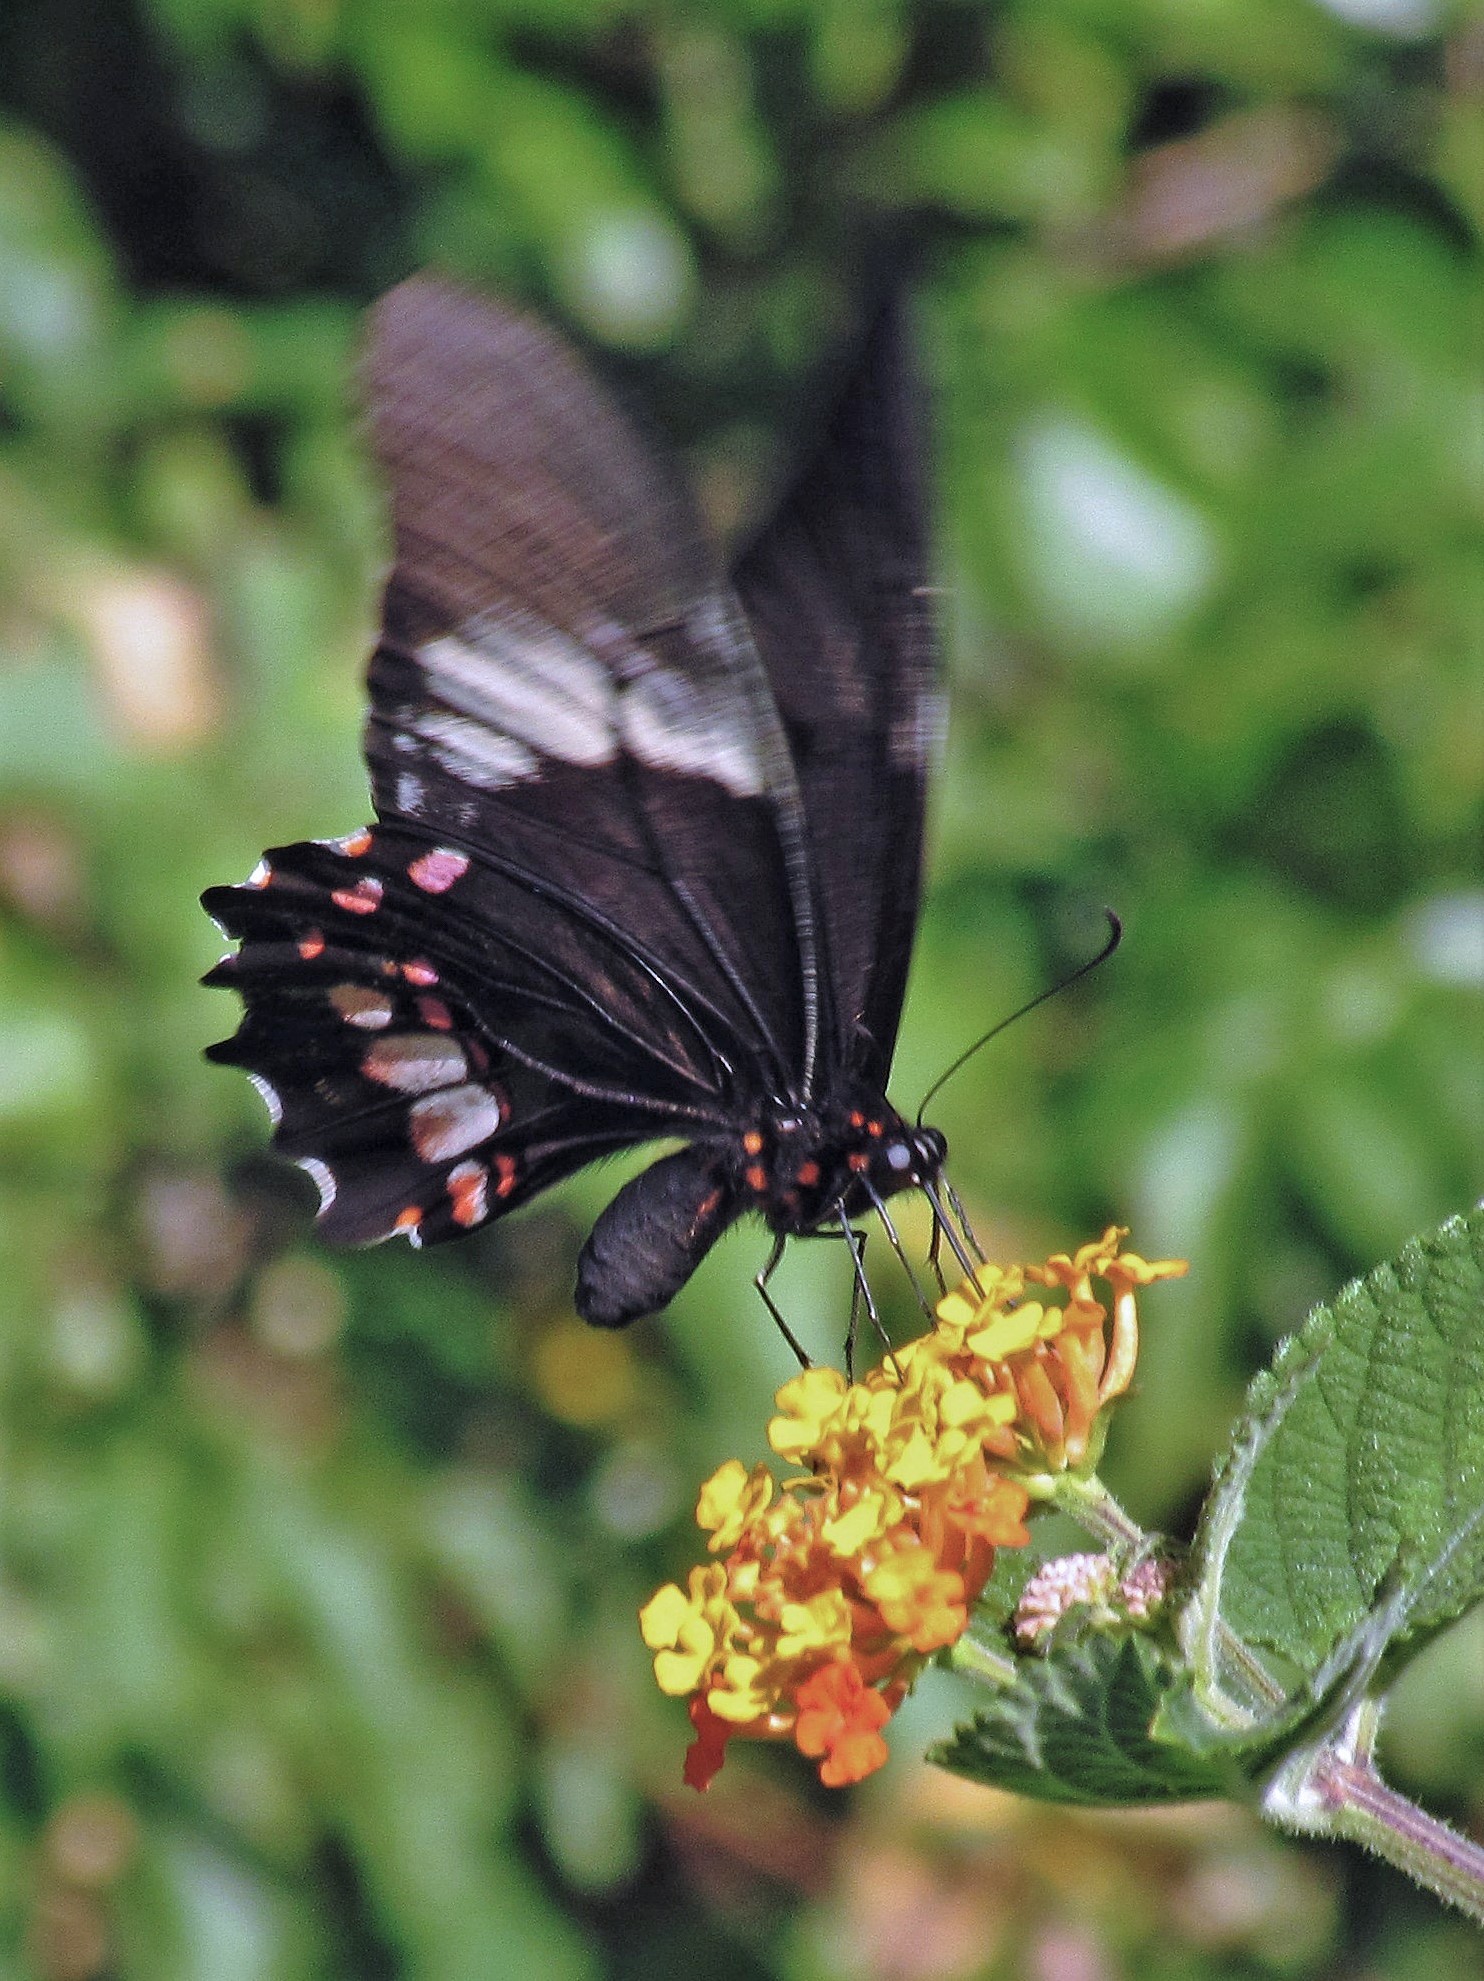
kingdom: Animalia
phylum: Arthropoda
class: Insecta
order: Lepidoptera
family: Papilionidae
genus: Papilio
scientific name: Papilio anchisiades
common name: Idaes swallowtail
